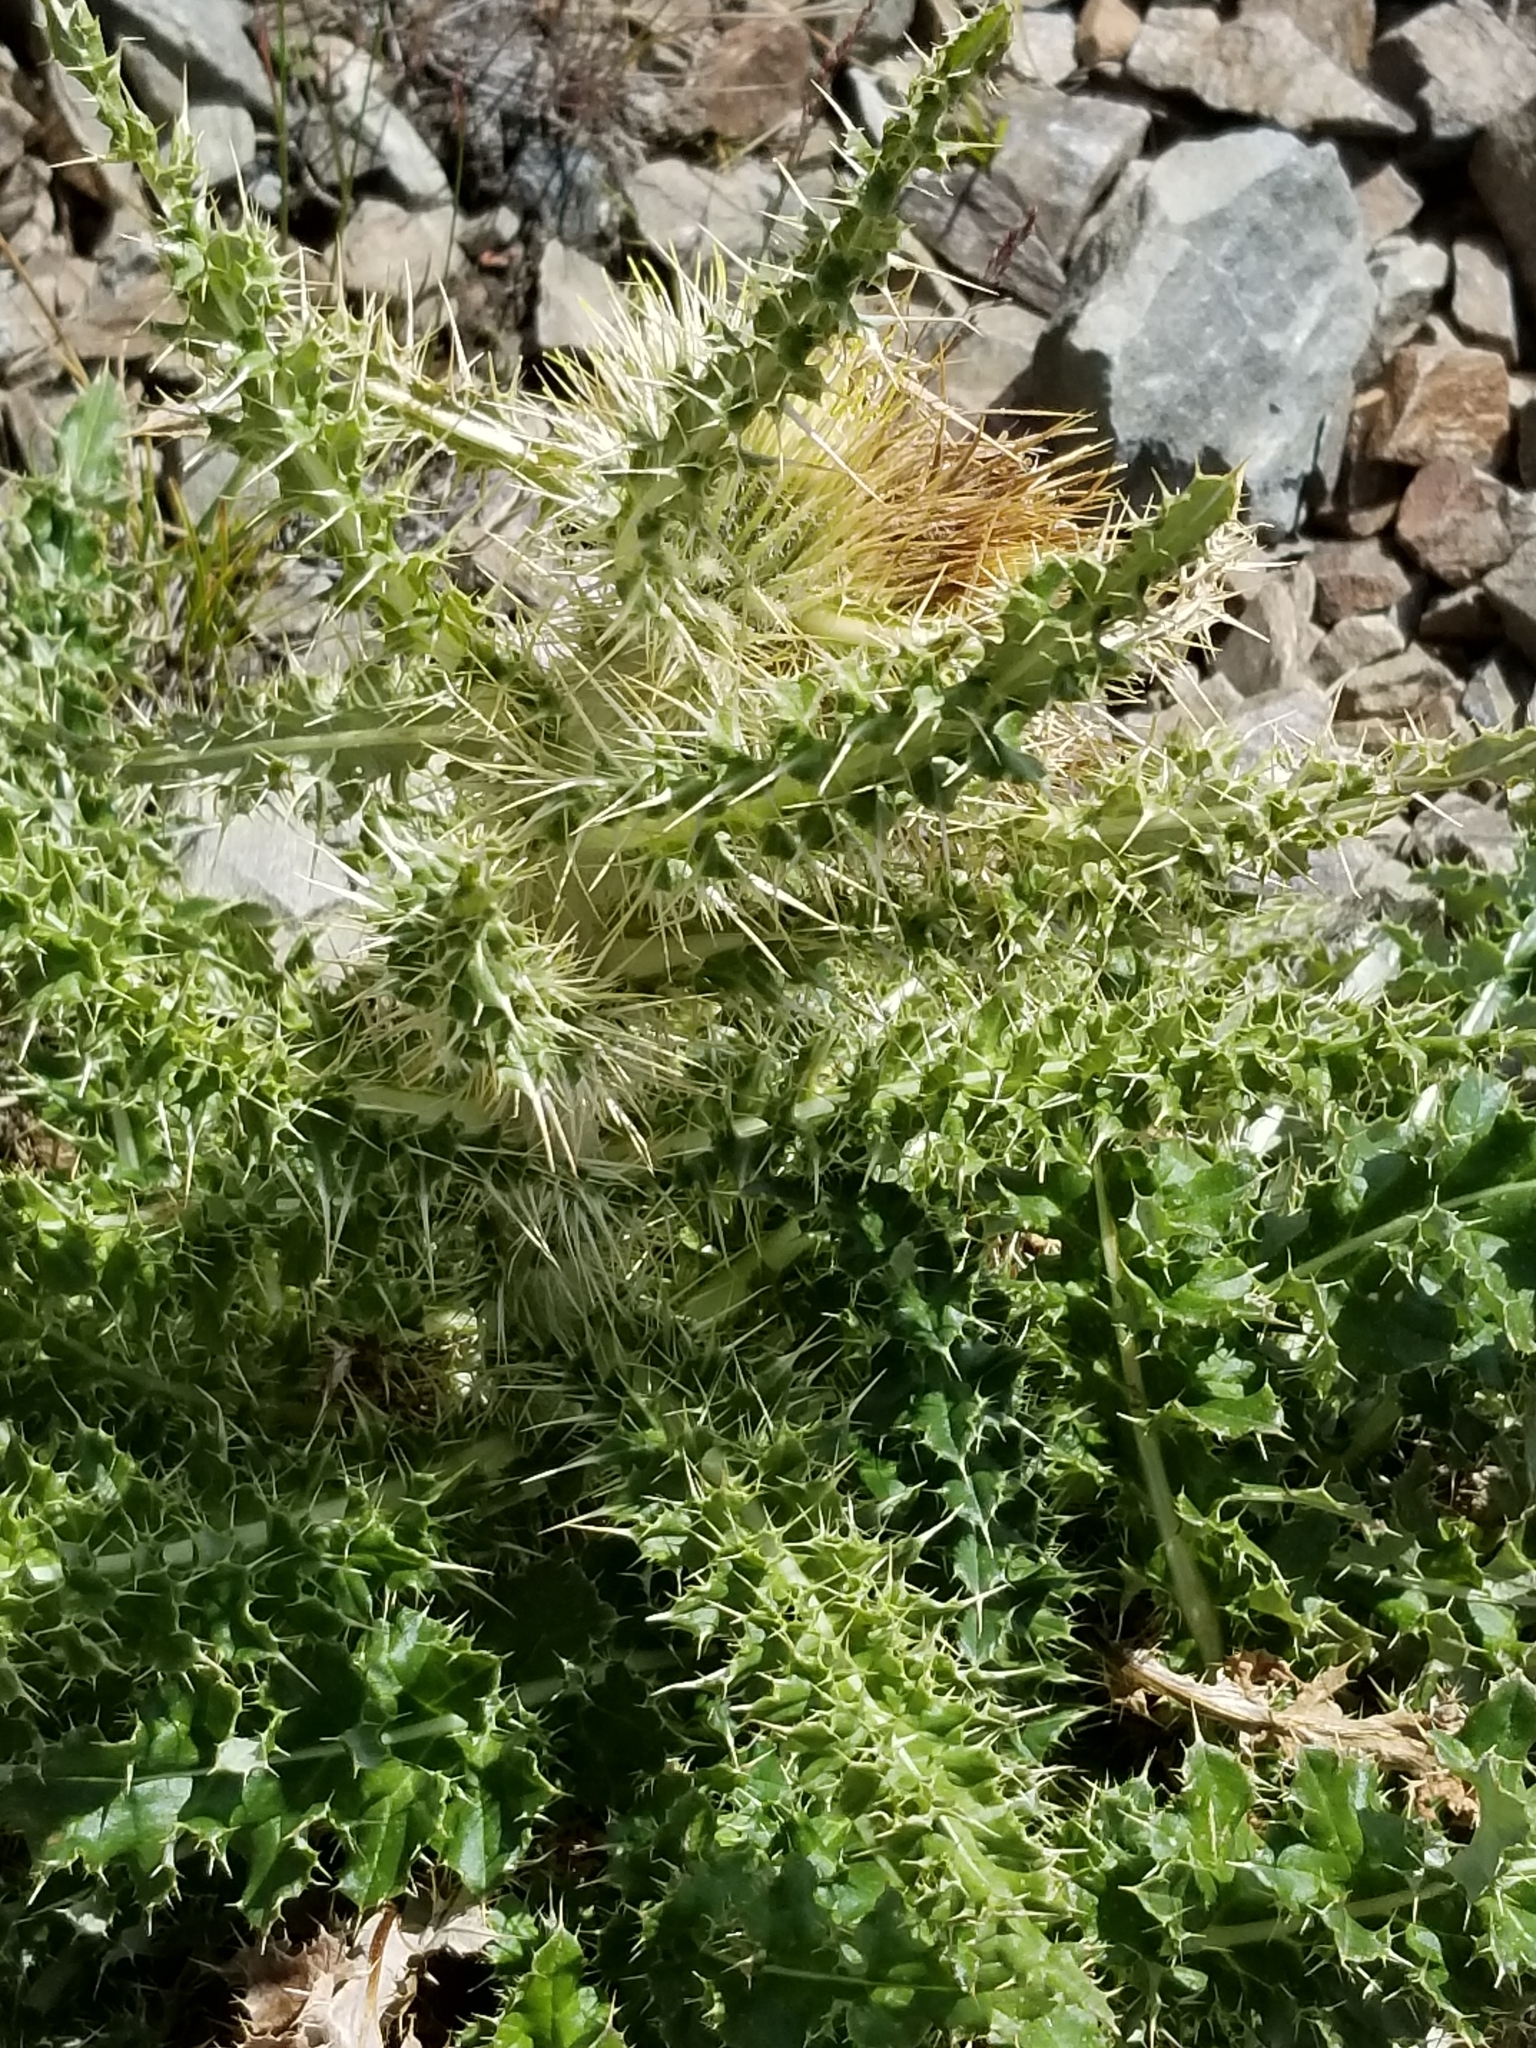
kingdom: Plantae
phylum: Tracheophyta
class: Magnoliopsida
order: Asterales
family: Asteraceae
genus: Cirsium
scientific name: Cirsium funkiae
